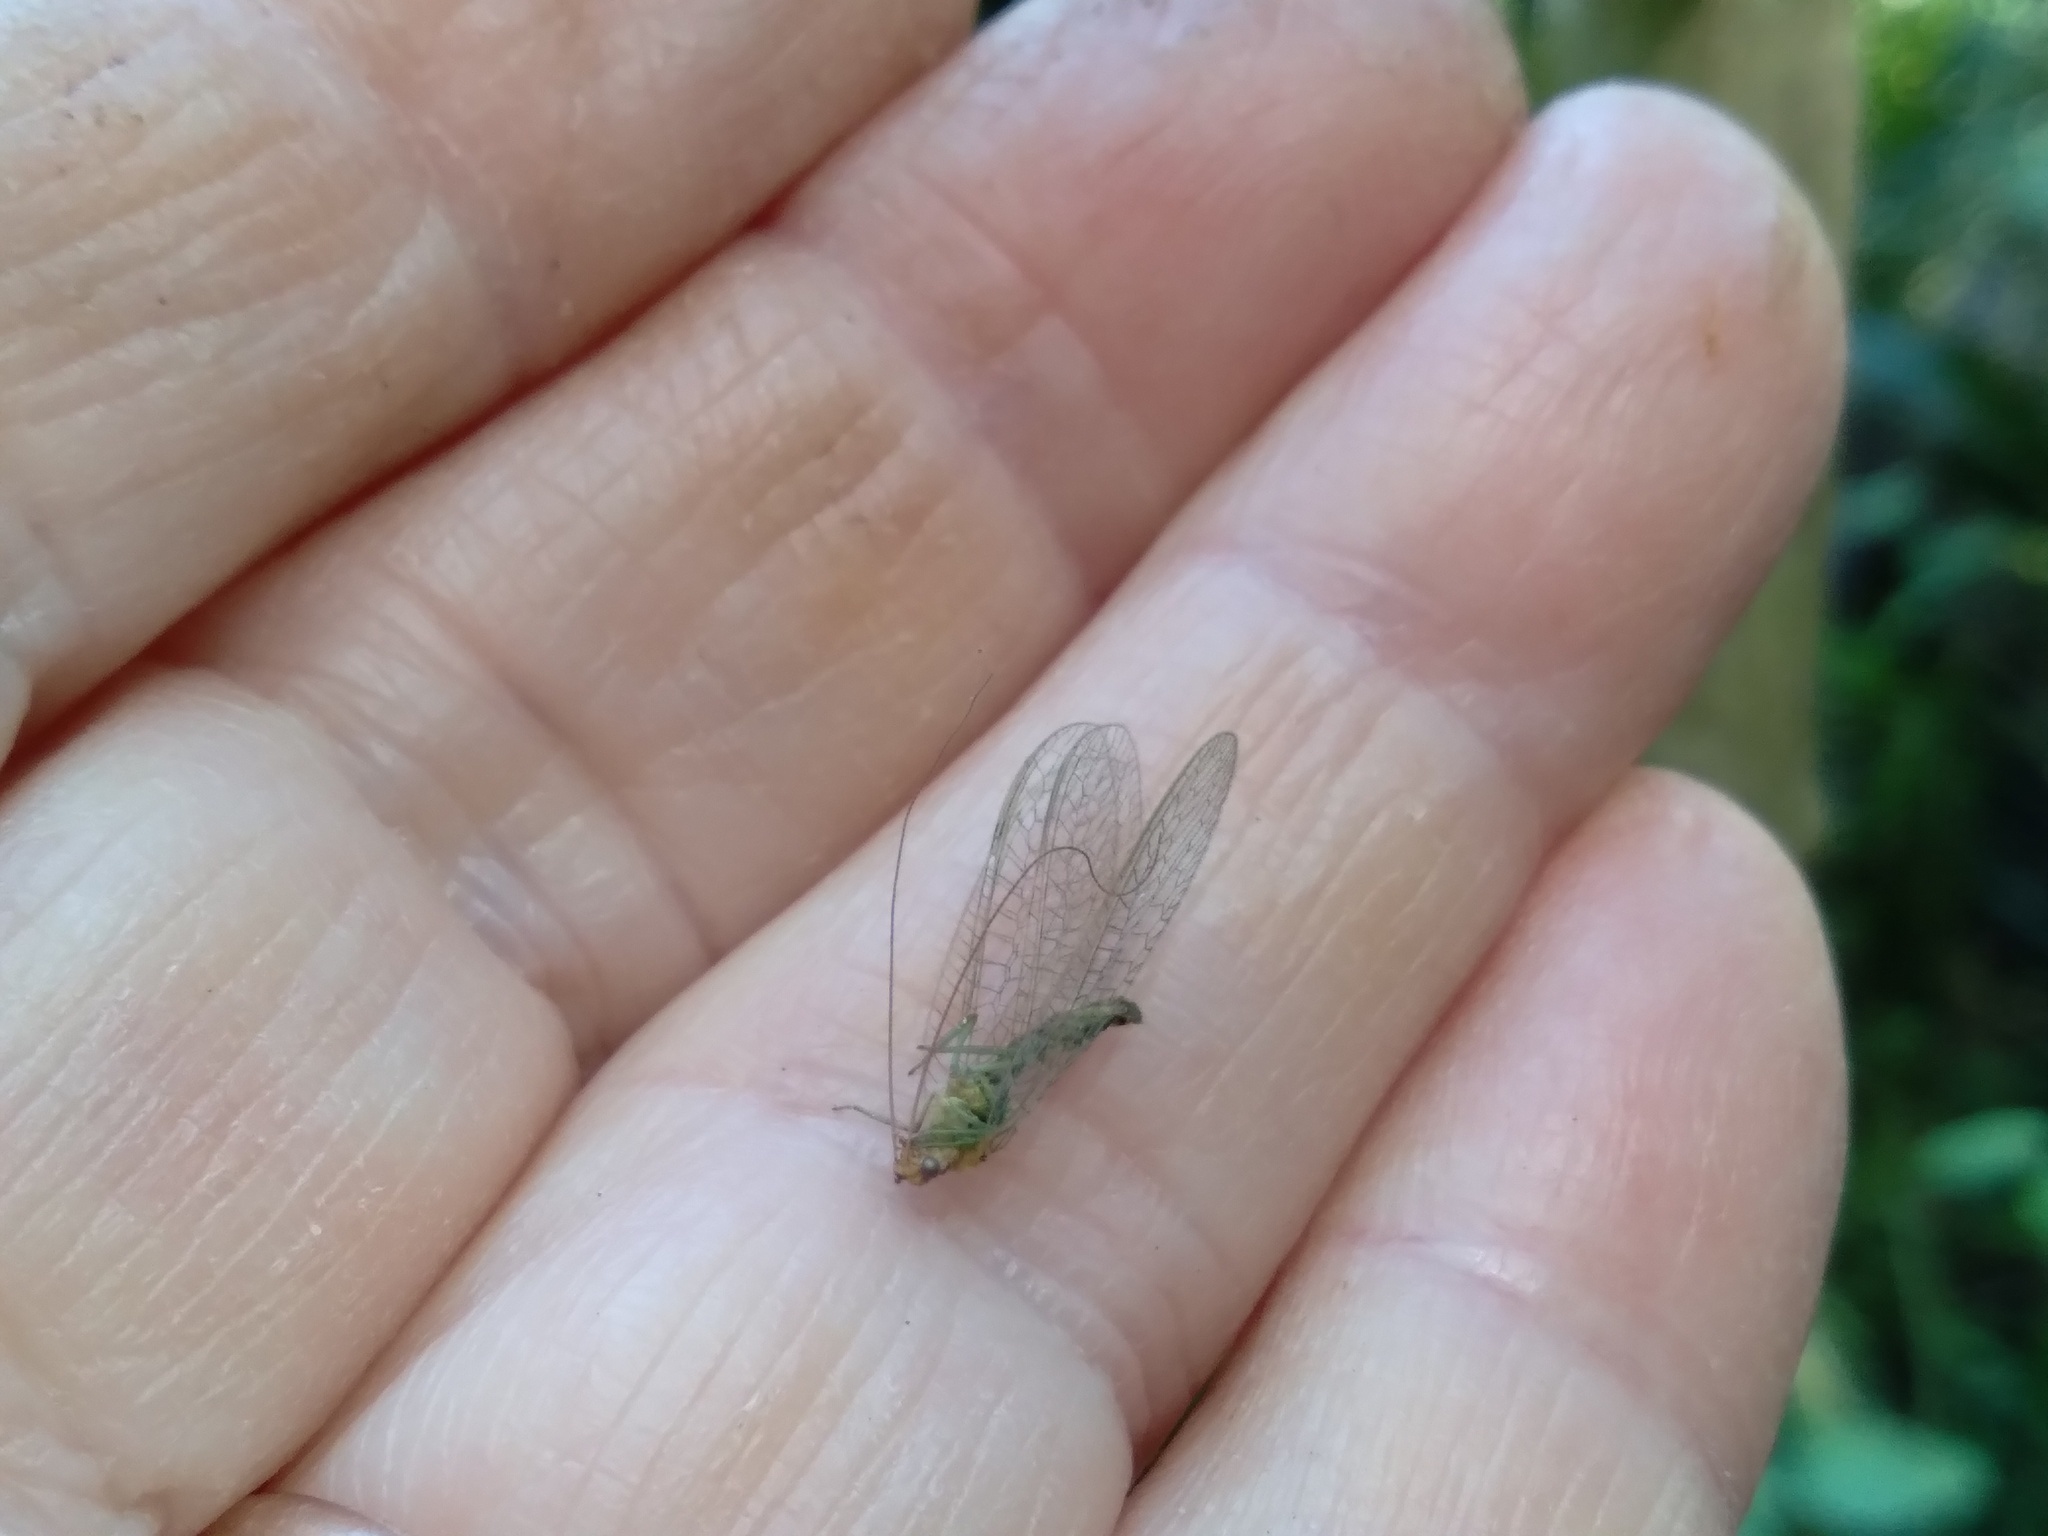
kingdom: Animalia
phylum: Arthropoda
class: Insecta
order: Neuroptera
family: Chrysopidae
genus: Mallada
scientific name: Mallada basalis
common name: Green lacewing
